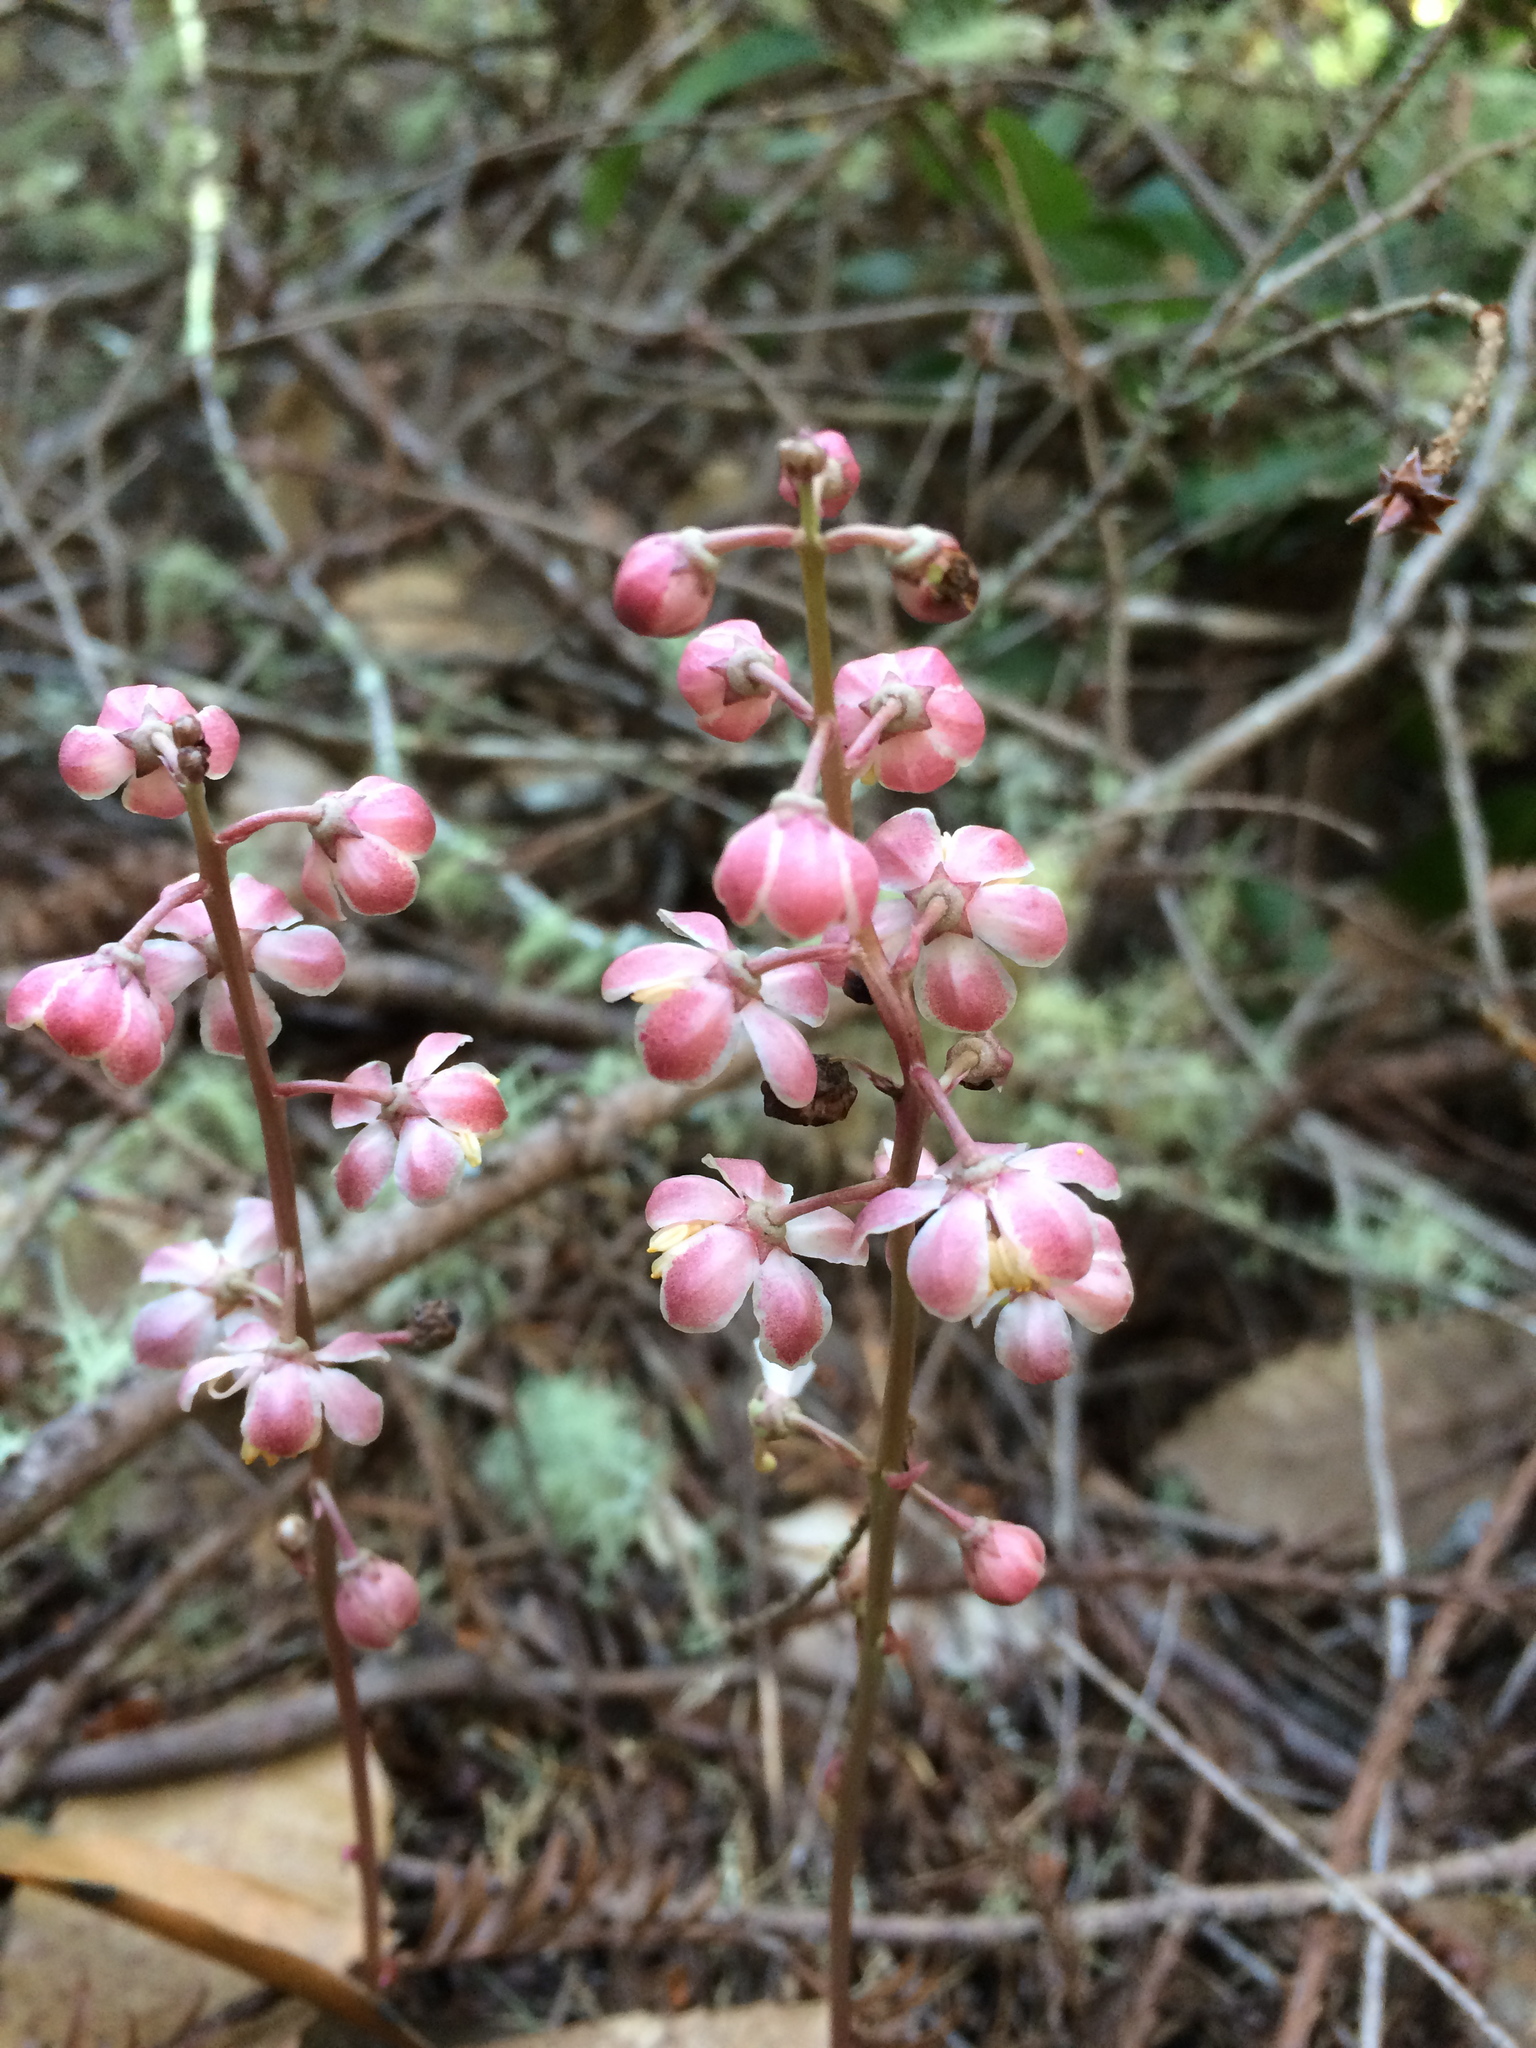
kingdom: Plantae
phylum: Tracheophyta
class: Magnoliopsida
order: Ericales
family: Ericaceae
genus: Pyrola
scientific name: Pyrola aphylla
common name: Leafless wintergreen
